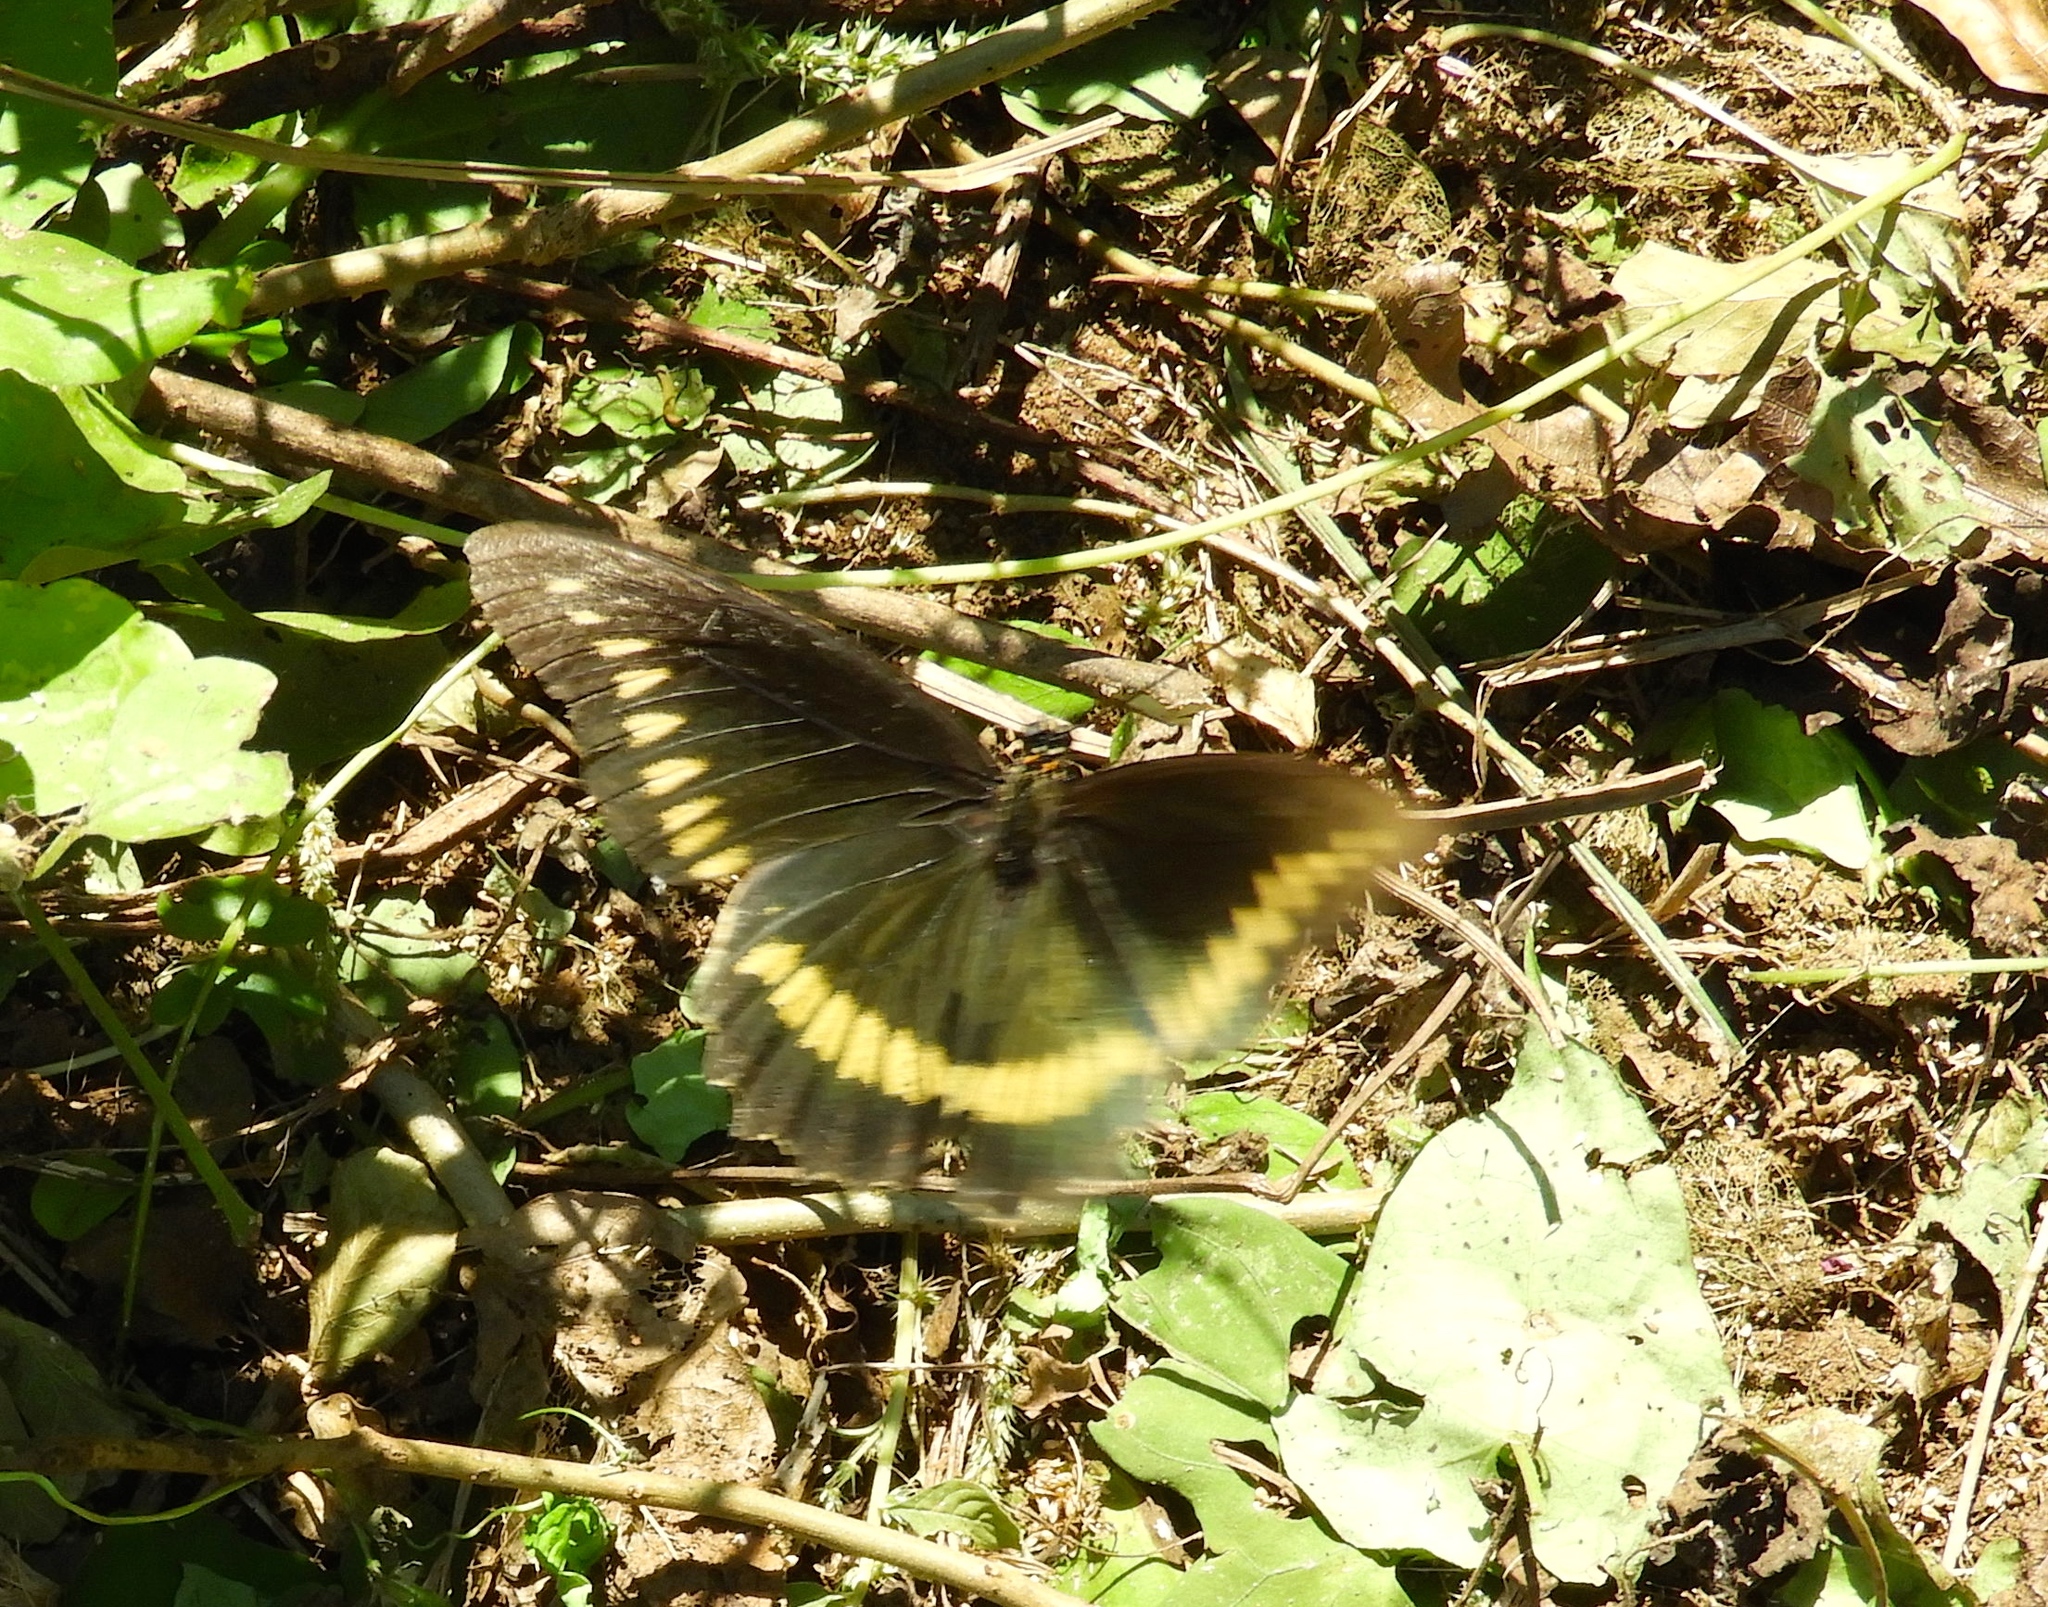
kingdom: Animalia
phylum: Arthropoda
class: Insecta
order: Lepidoptera
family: Papilionidae
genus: Battus
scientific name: Battus polydamas
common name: Polydamas swallowtail
